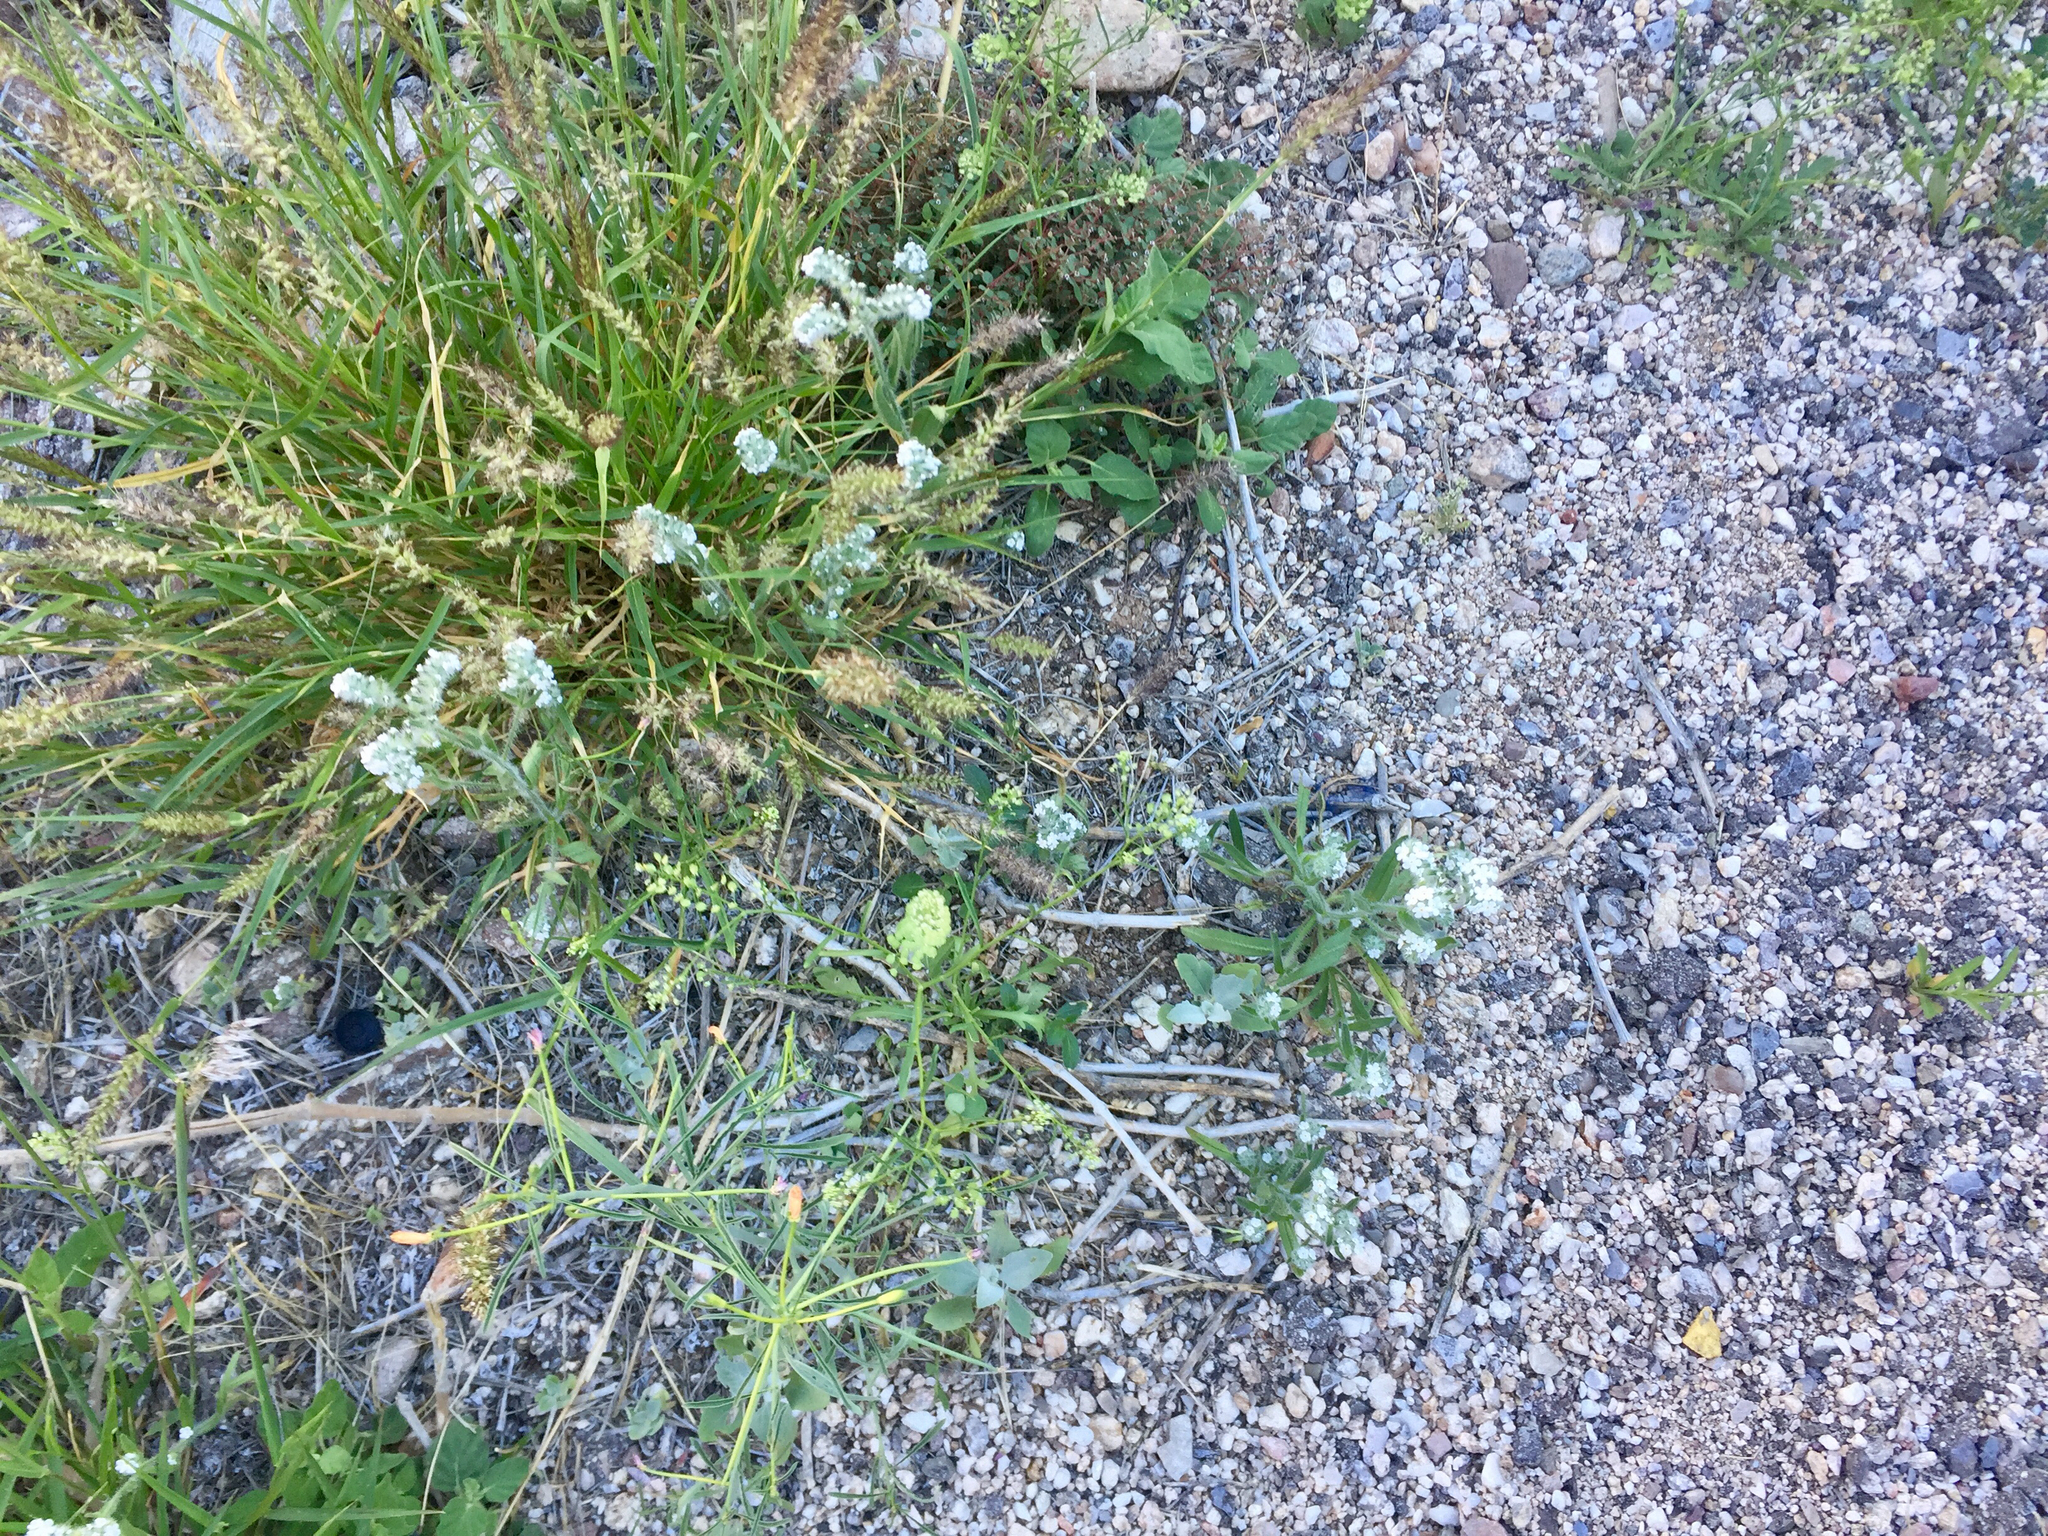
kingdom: Plantae
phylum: Tracheophyta
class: Magnoliopsida
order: Boraginales
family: Boraginaceae
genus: Cryptantha
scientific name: Cryptantha muricata
